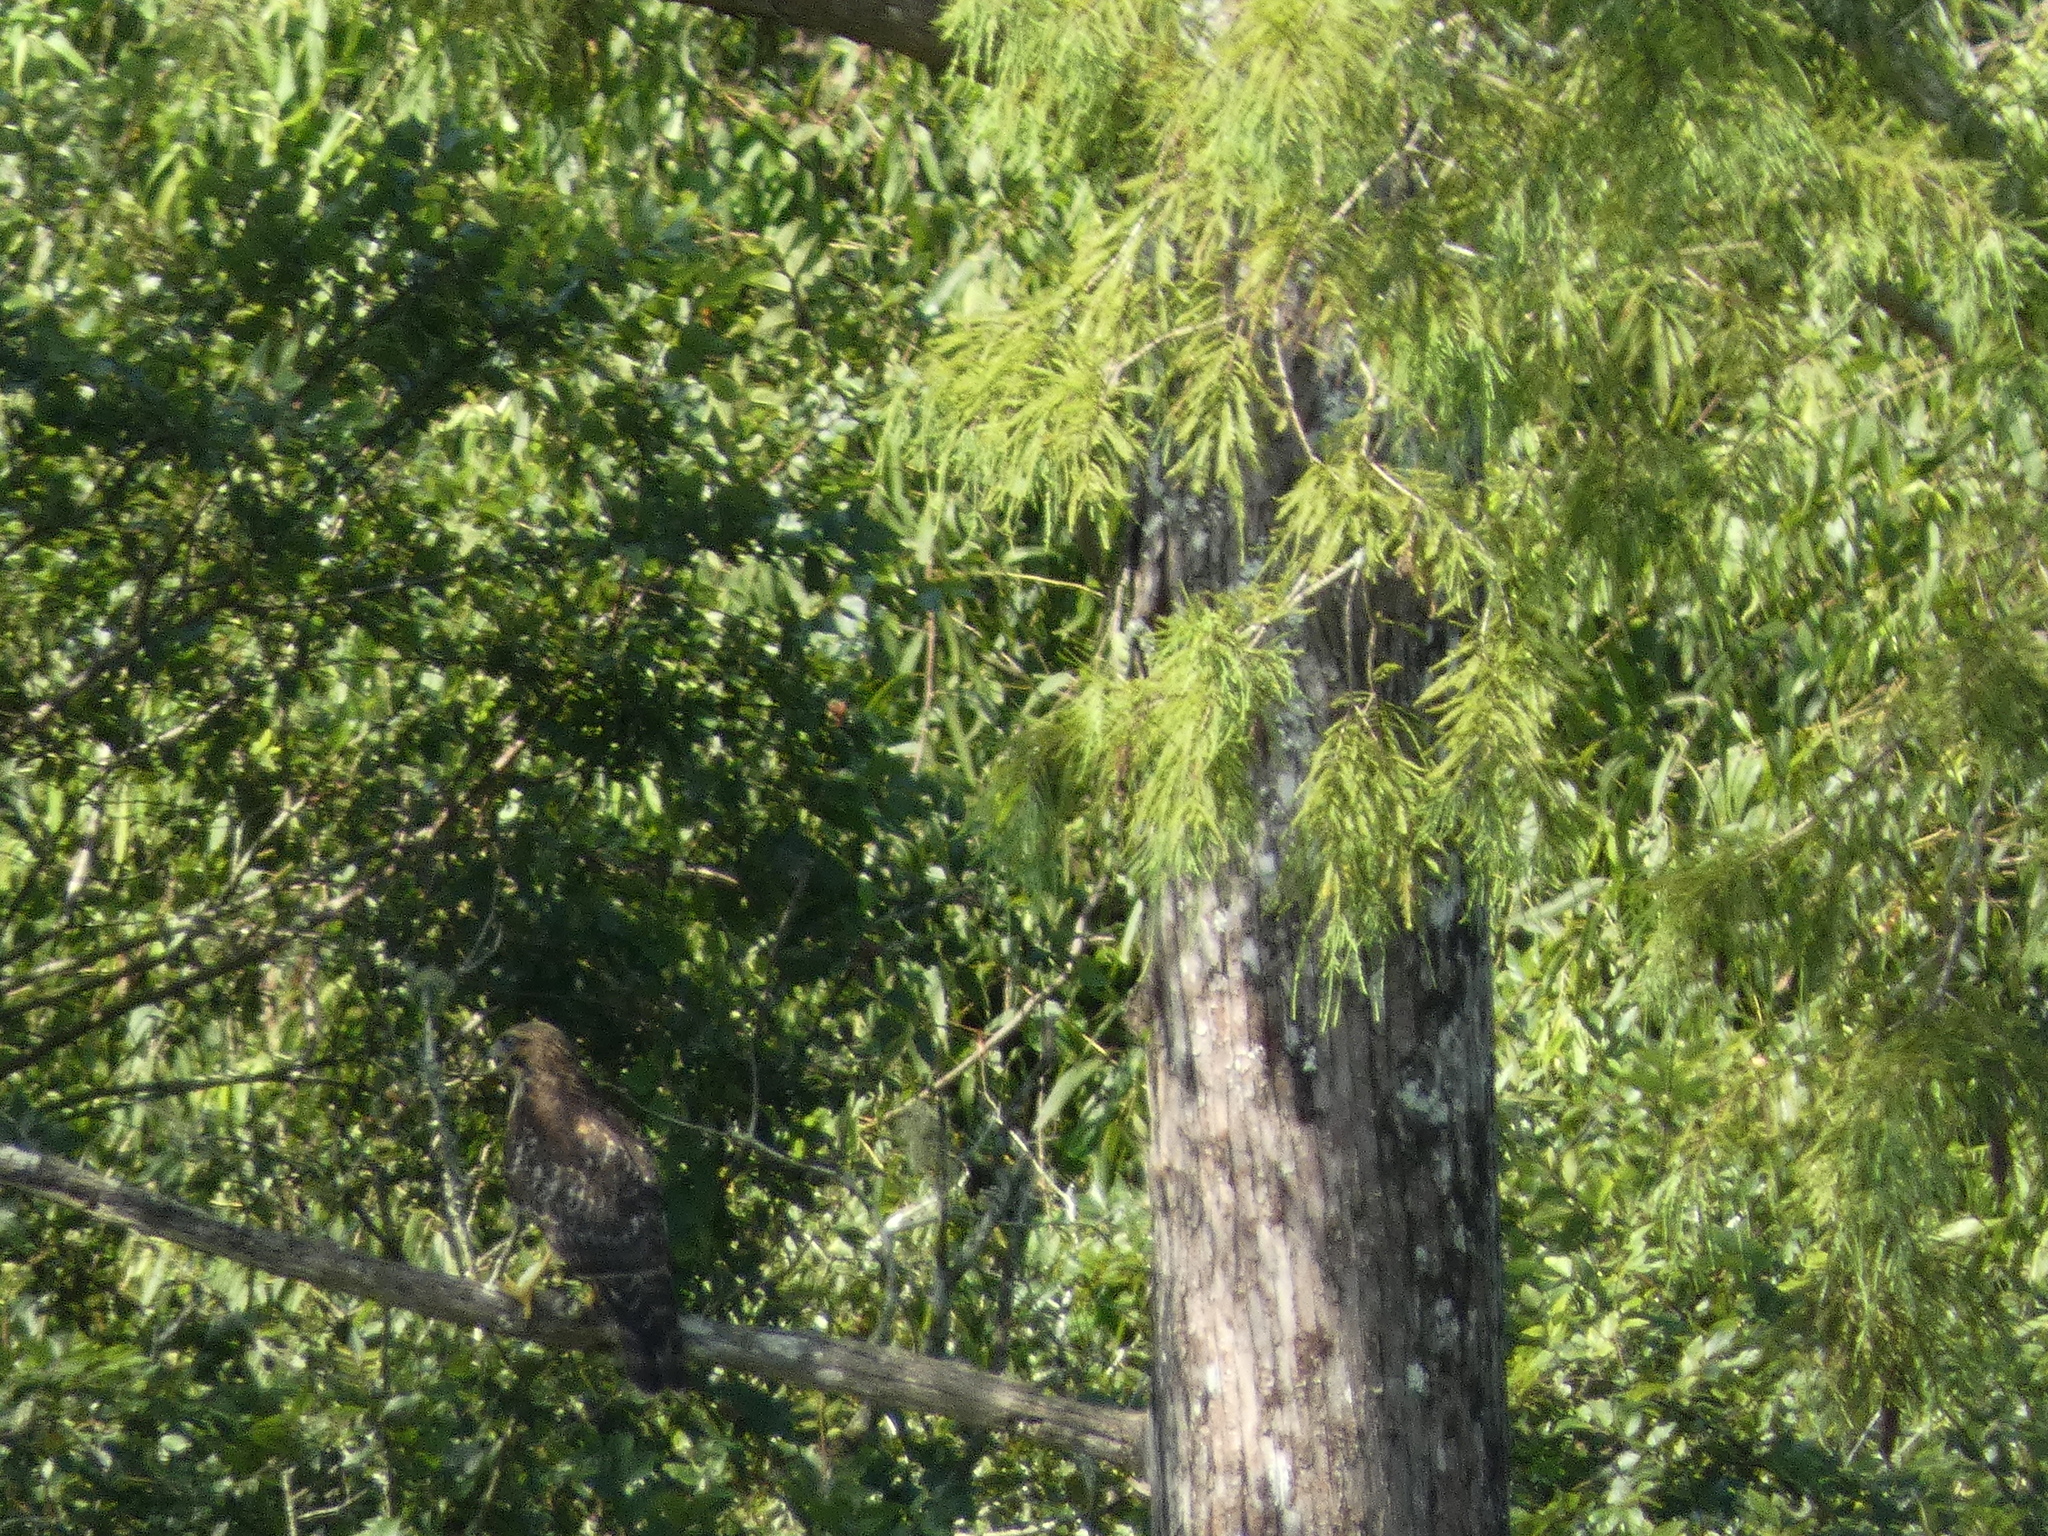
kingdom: Animalia
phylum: Chordata
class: Aves
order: Accipitriformes
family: Accipitridae
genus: Buteo
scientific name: Buteo lineatus
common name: Red-shouldered hawk
